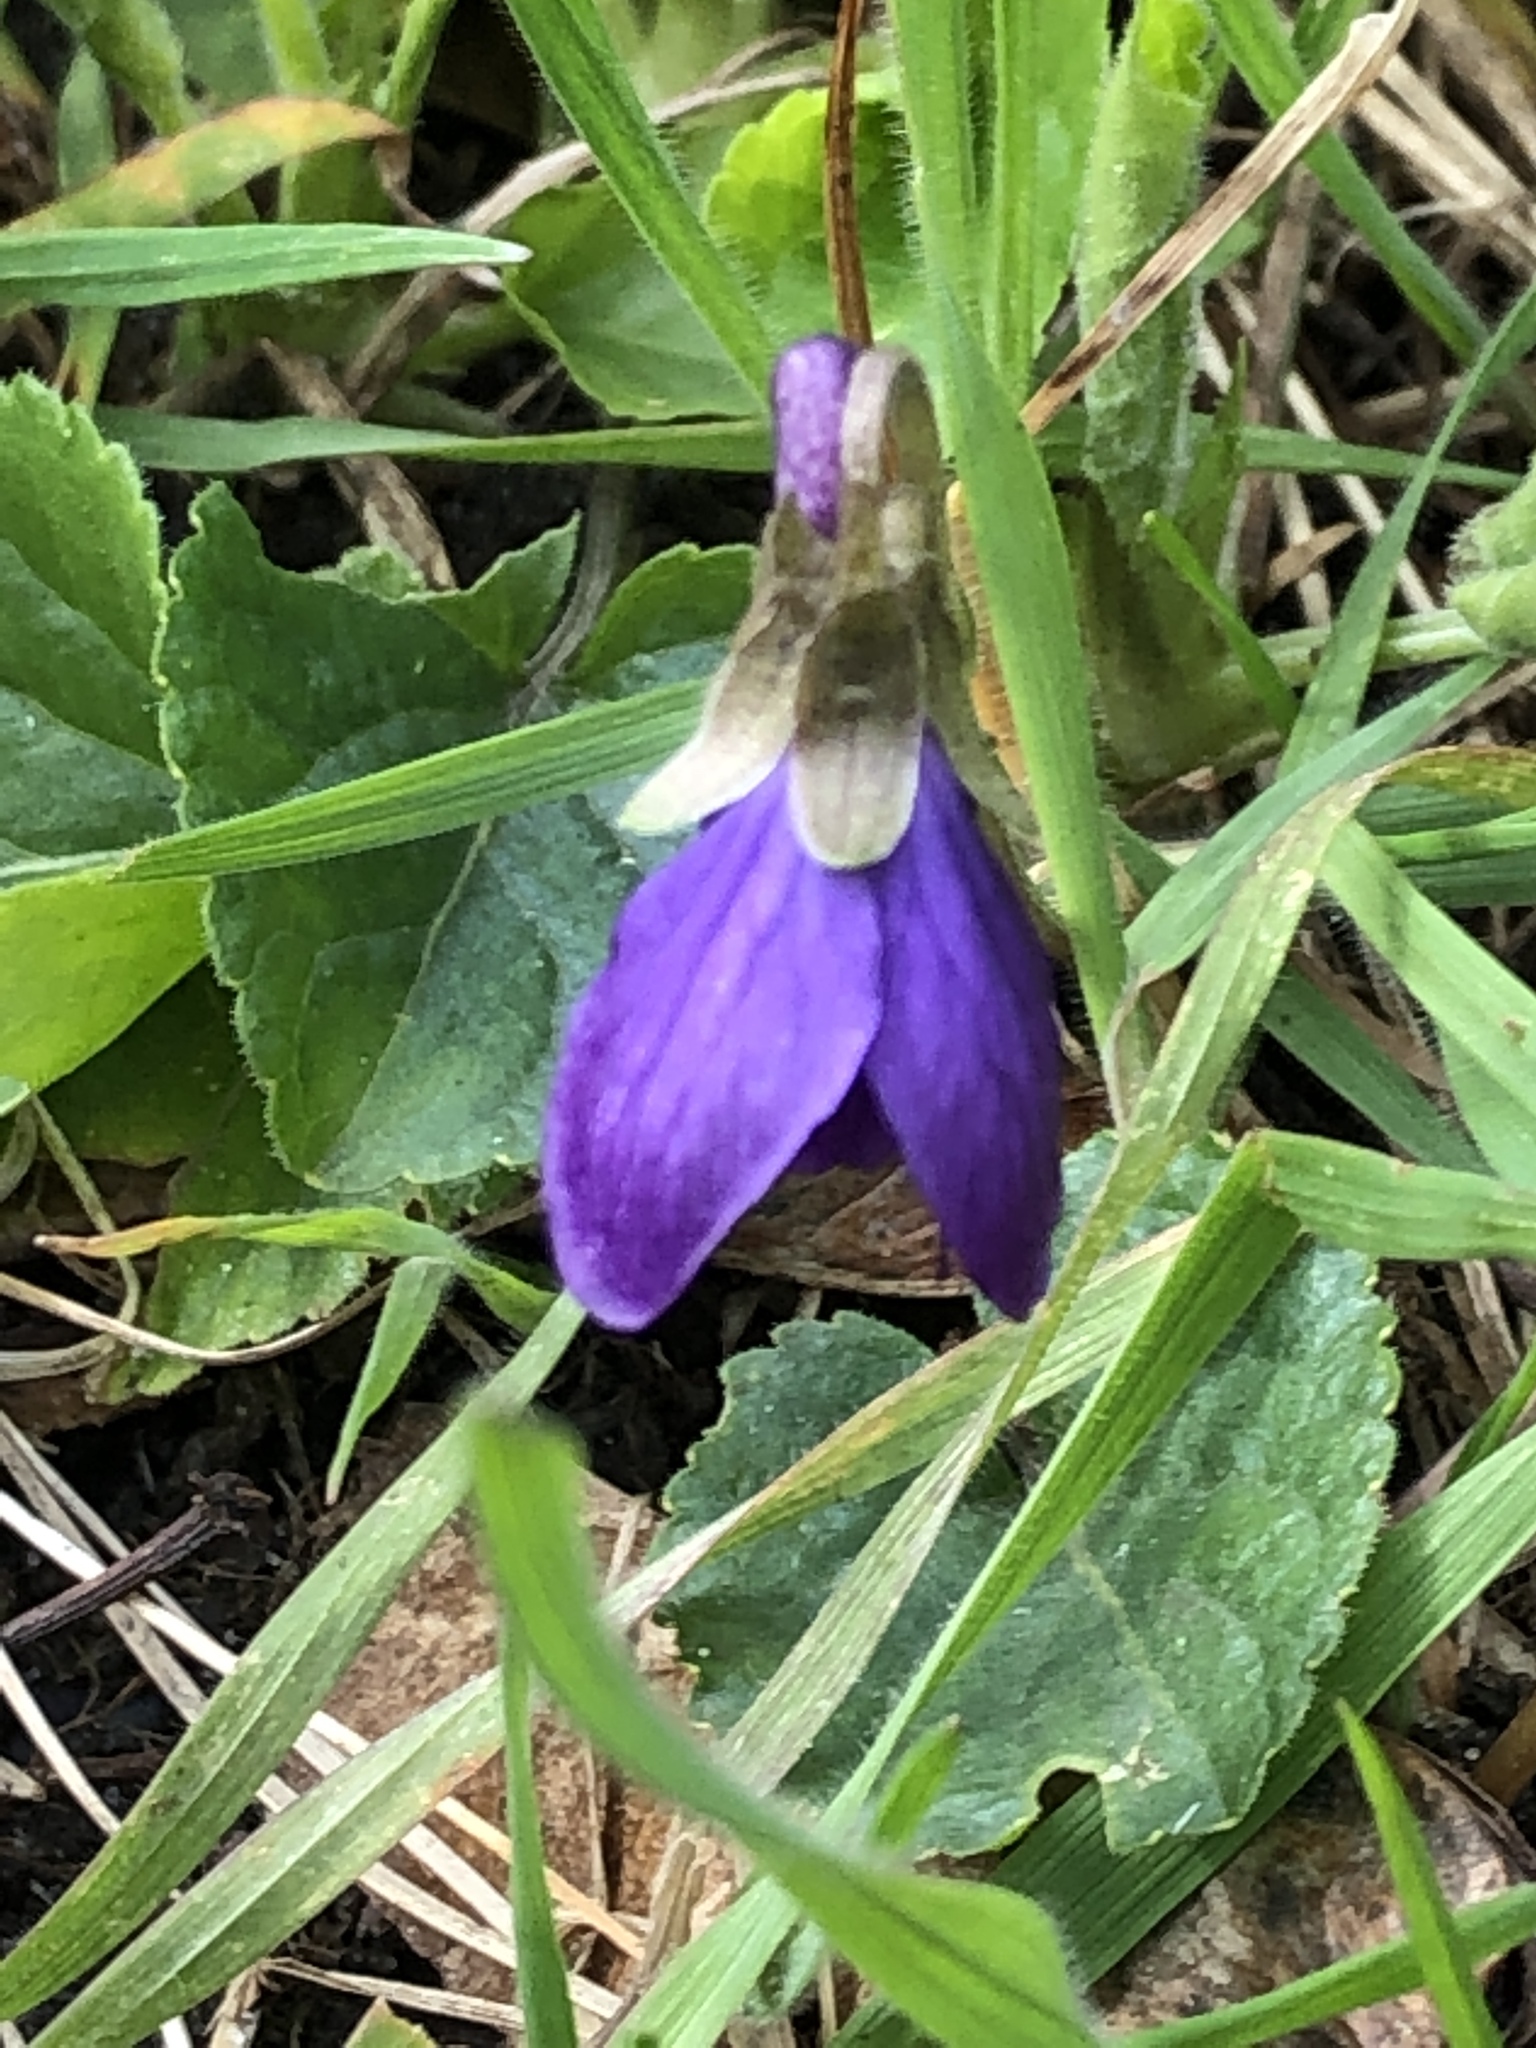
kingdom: Plantae
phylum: Tracheophyta
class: Magnoliopsida
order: Malpighiales
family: Violaceae
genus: Viola
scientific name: Viola odorata
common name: Sweet violet
